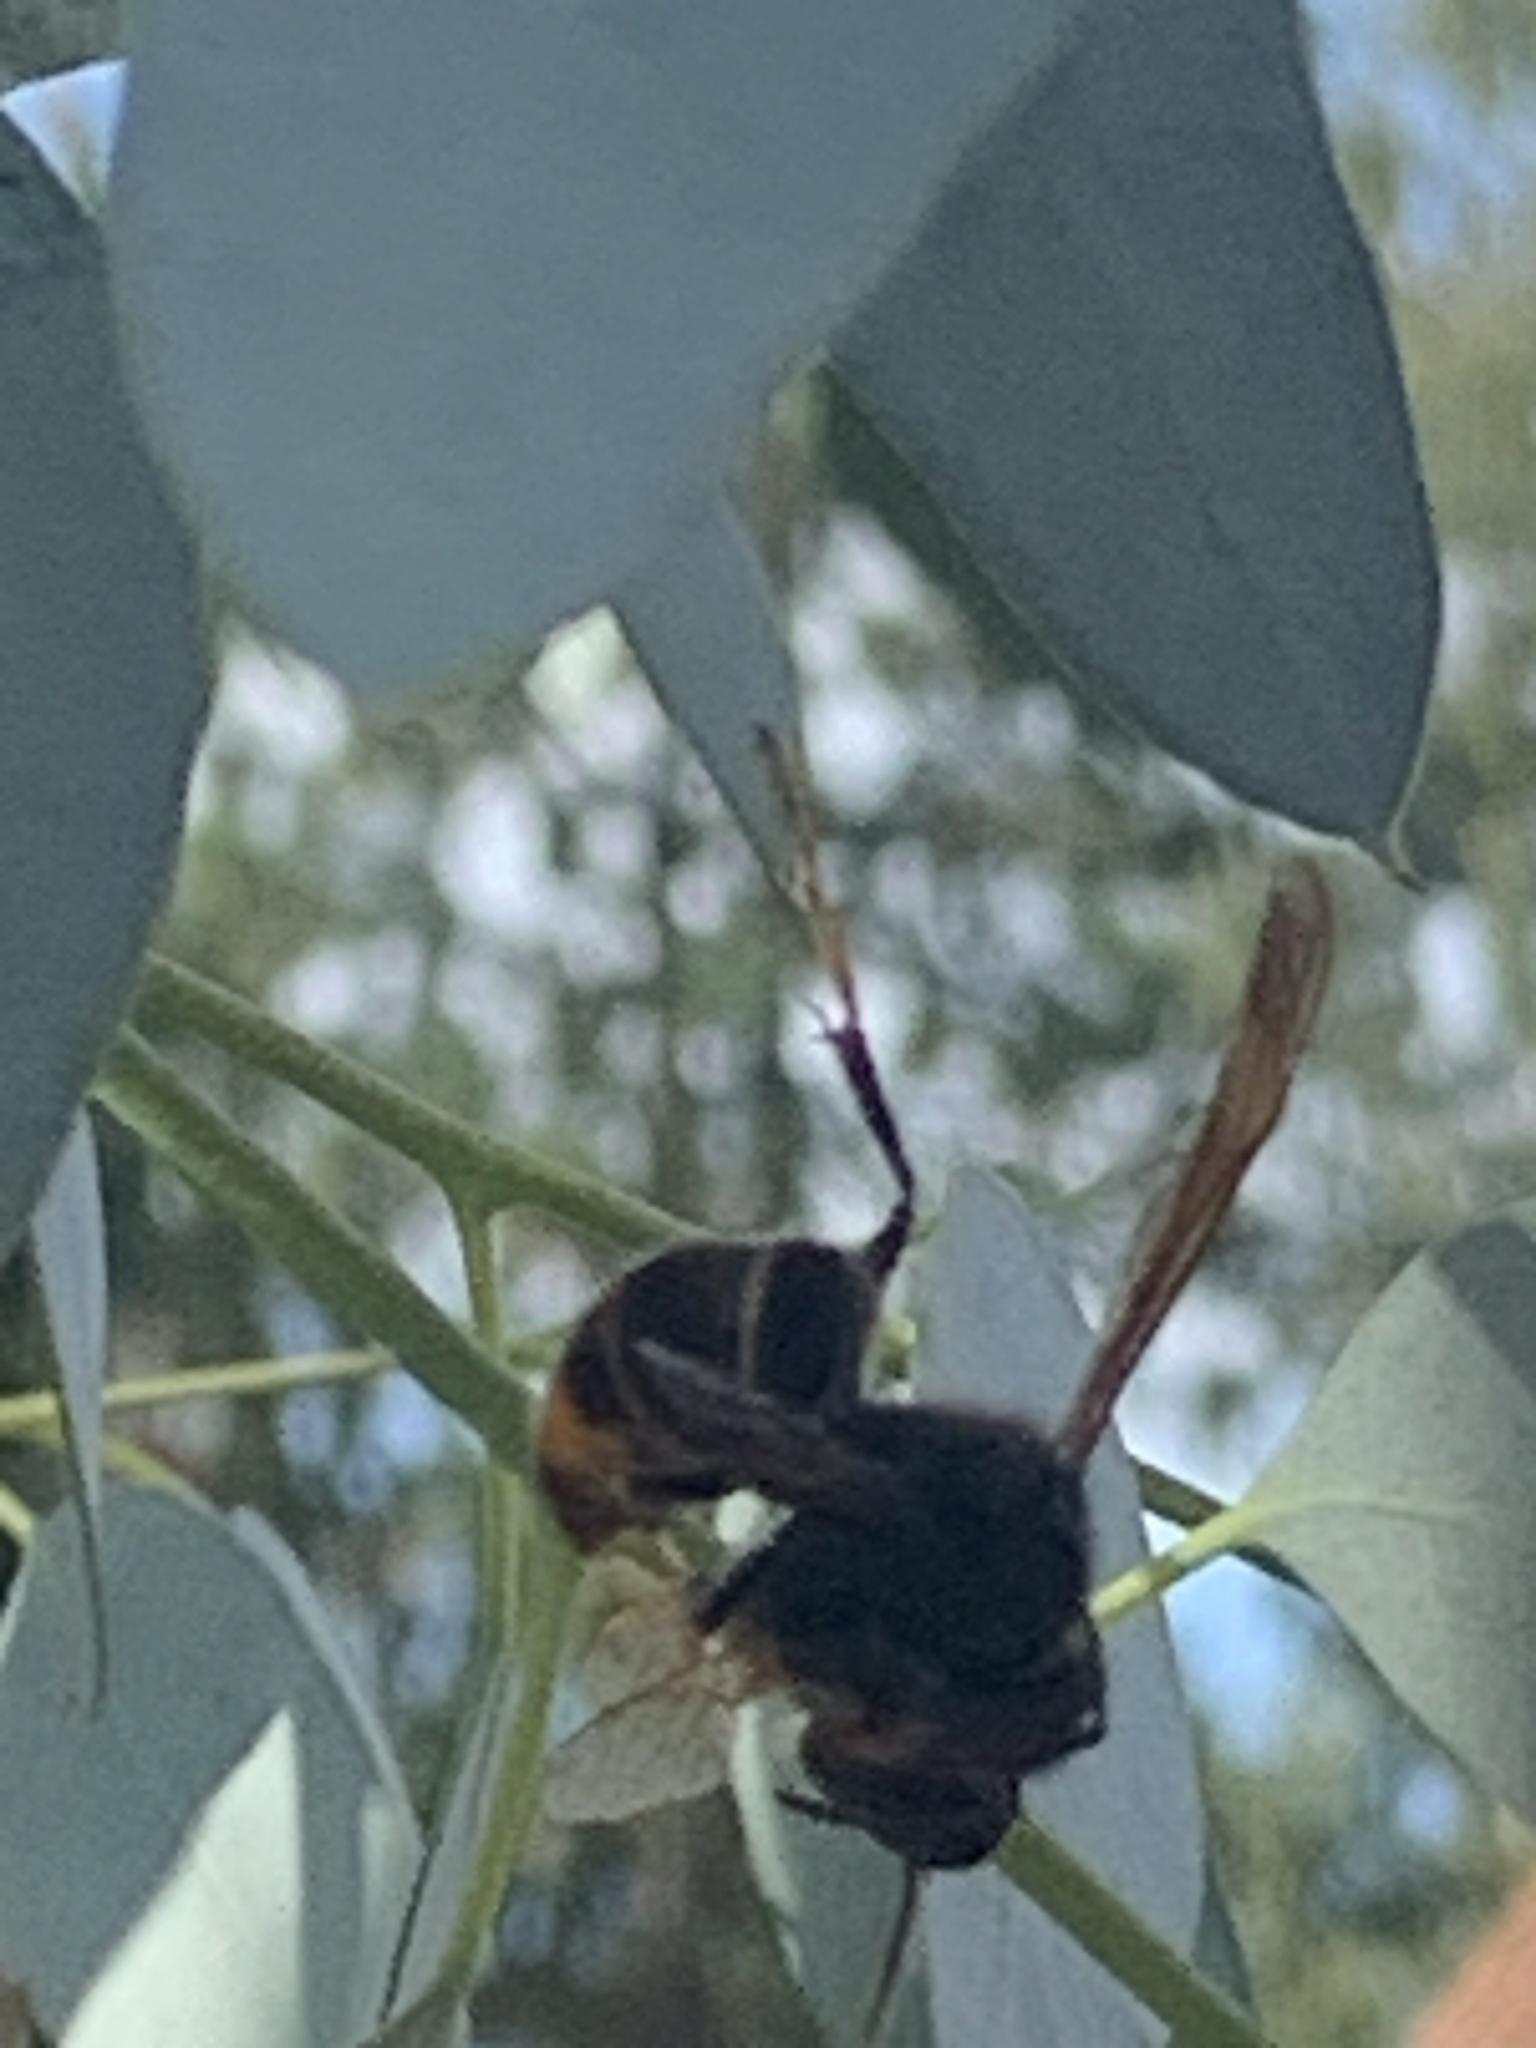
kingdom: Animalia
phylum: Arthropoda
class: Insecta
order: Hymenoptera
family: Vespidae
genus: Vespa
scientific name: Vespa velutina
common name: Asian hornet
